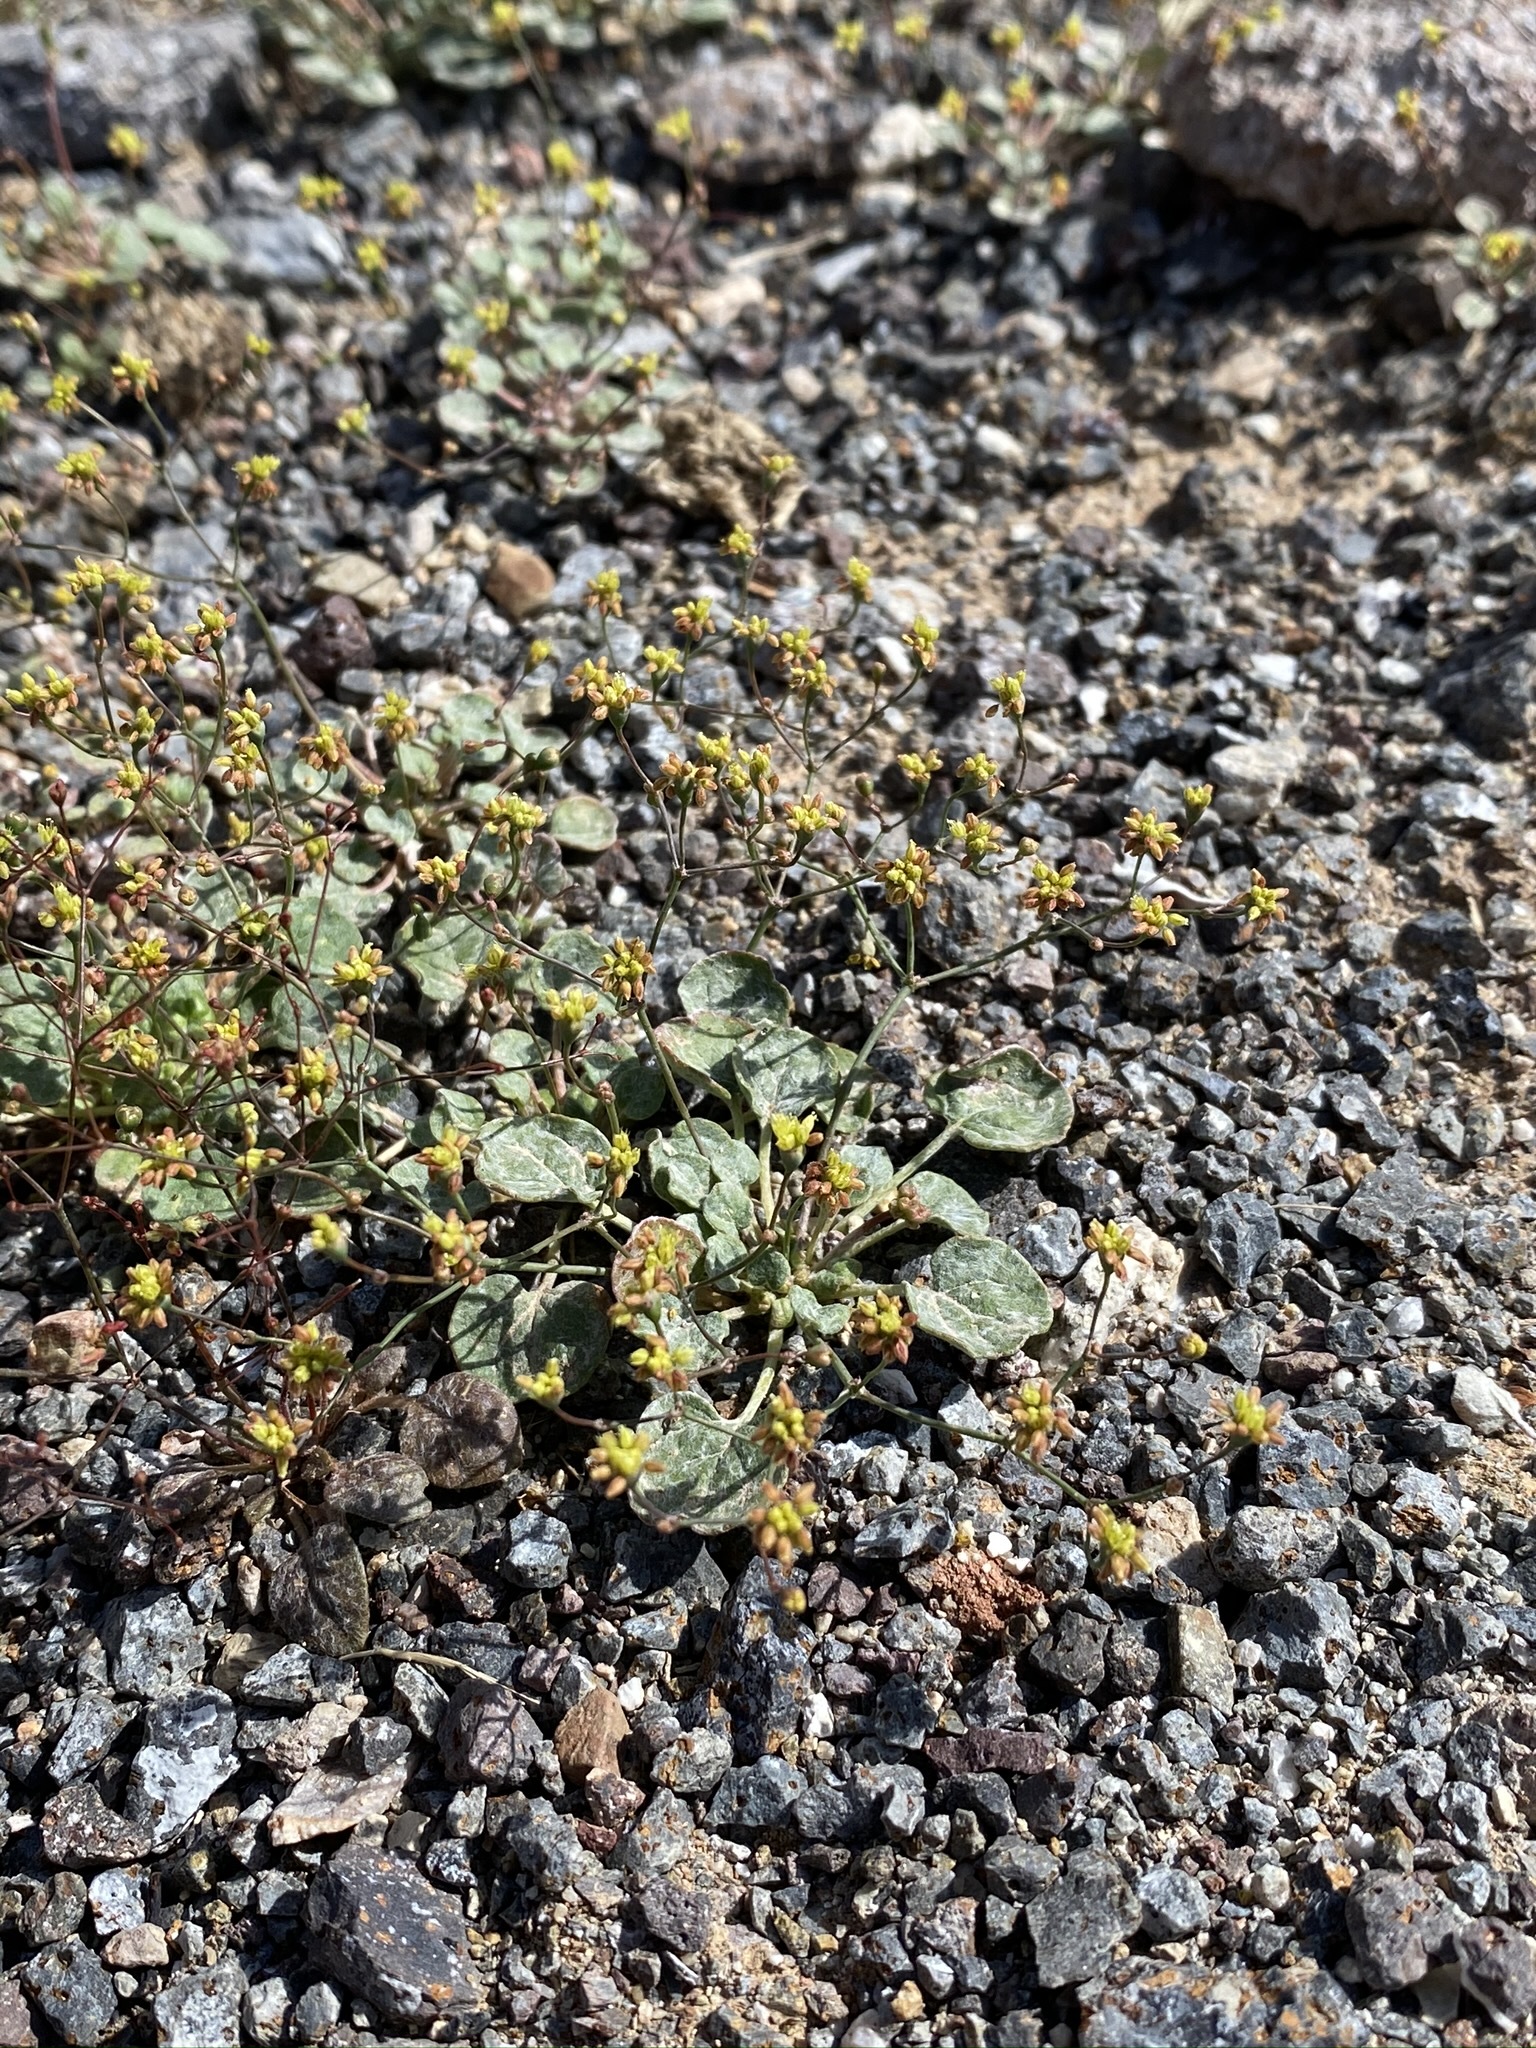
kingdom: Plantae
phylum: Tracheophyta
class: Magnoliopsida
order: Caryophyllales
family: Polygonaceae
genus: Eriogonum
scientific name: Eriogonum reniforme
